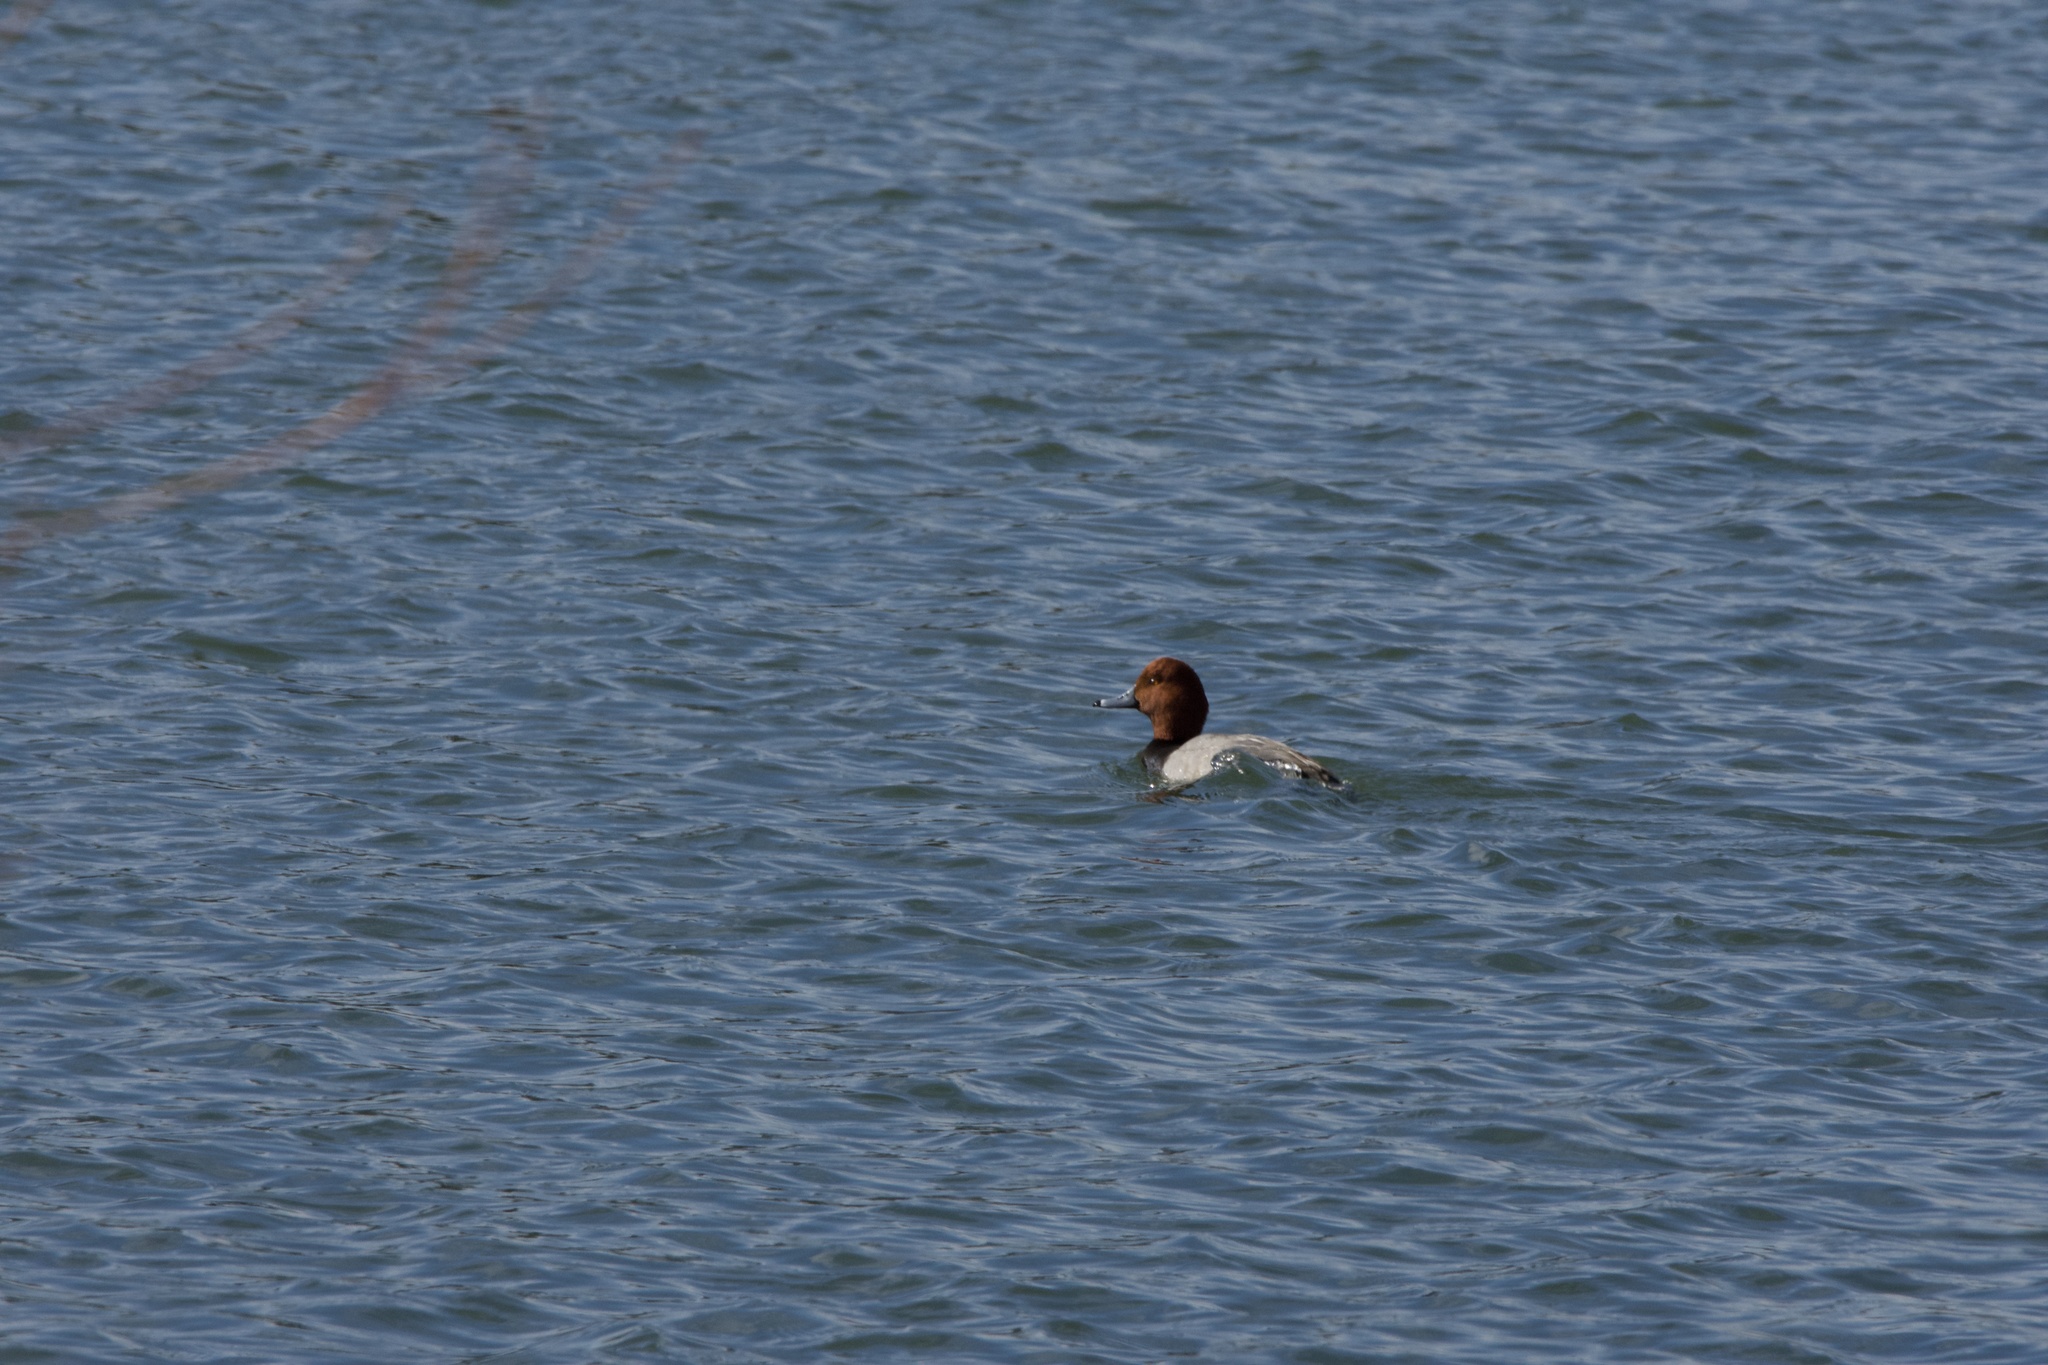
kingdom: Animalia
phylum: Chordata
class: Aves
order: Anseriformes
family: Anatidae
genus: Aythya
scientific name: Aythya americana
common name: Redhead
